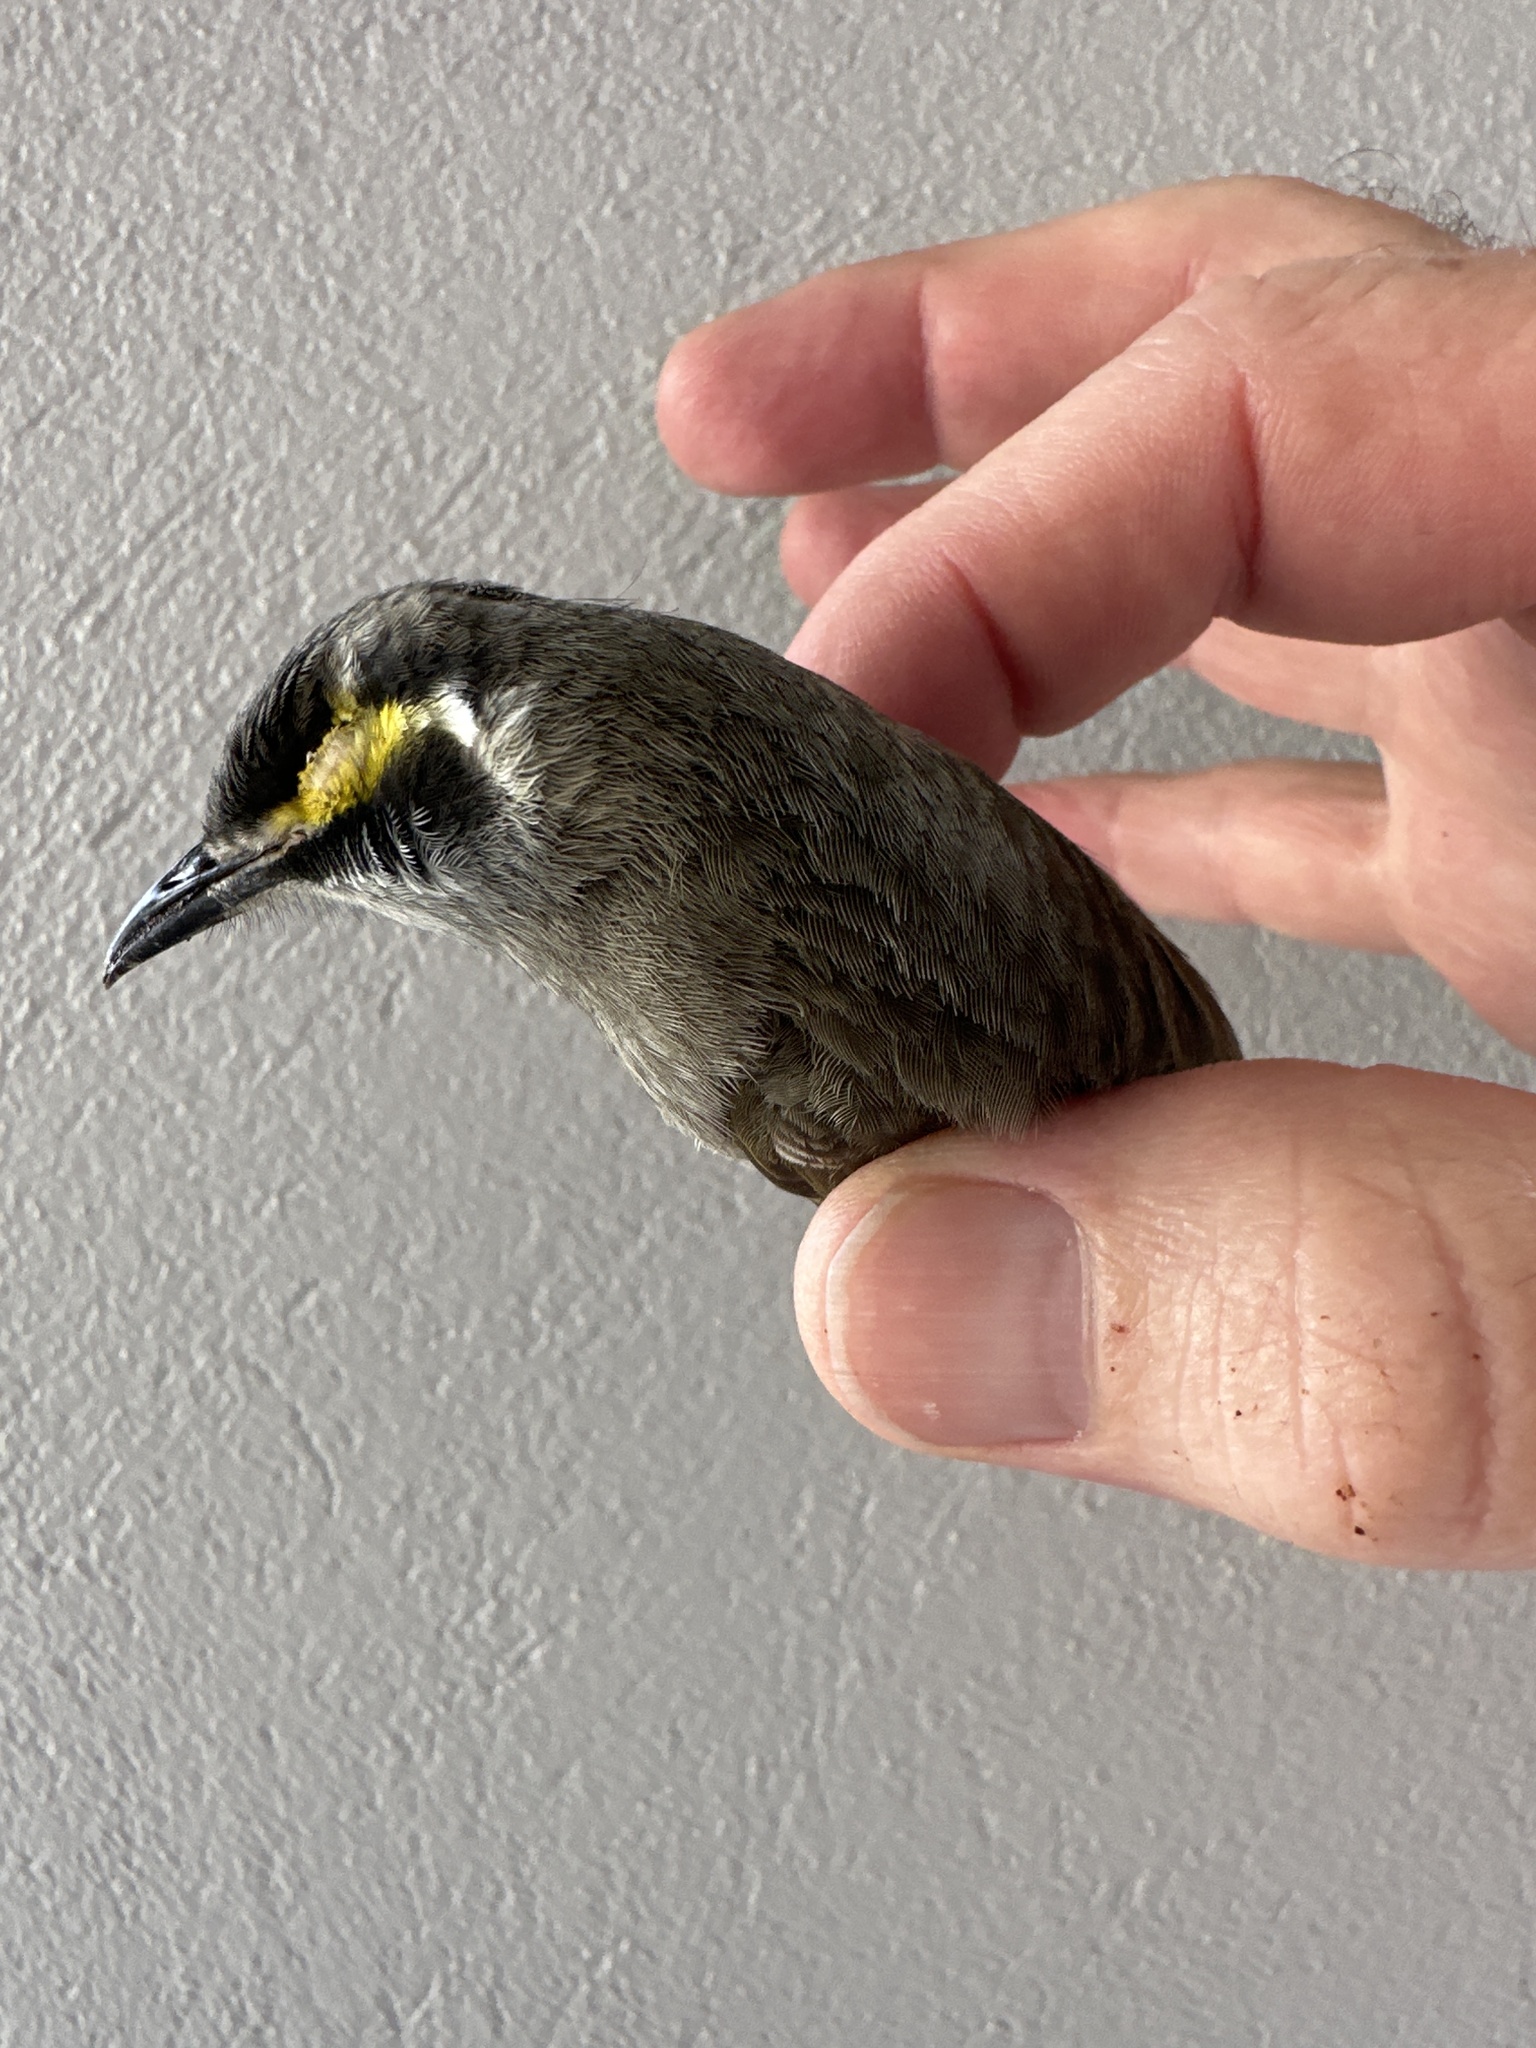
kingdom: Animalia
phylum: Chordata
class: Aves
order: Passeriformes
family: Meliphagidae
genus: Caligavis
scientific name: Caligavis chrysops
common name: Yellow-faced honeyeater
